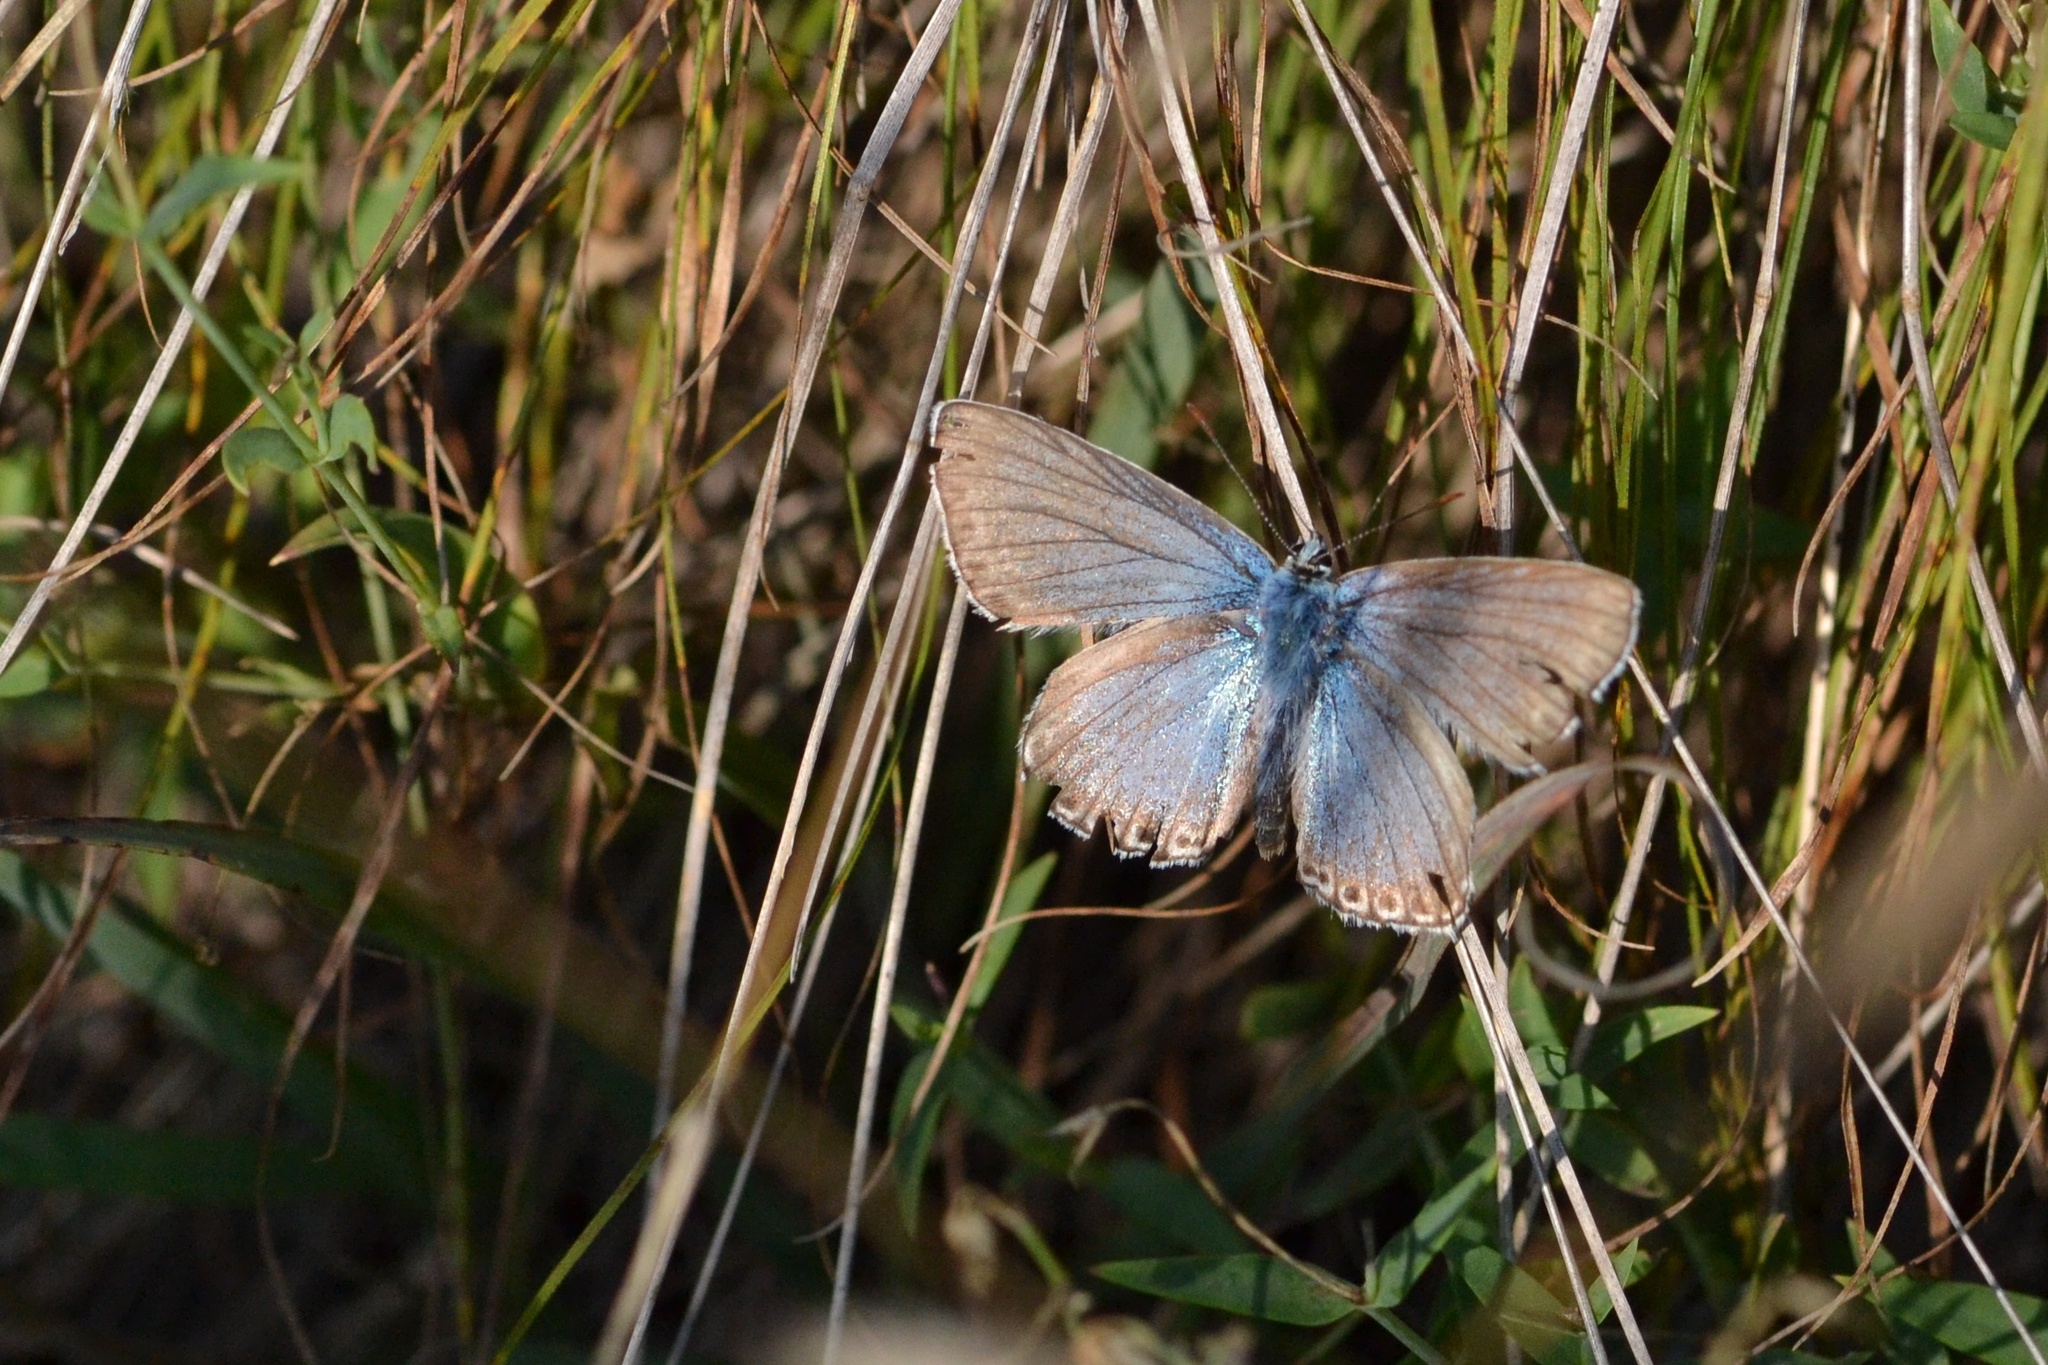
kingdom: Animalia
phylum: Arthropoda
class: Insecta
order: Lepidoptera
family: Lycaenidae
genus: Lysandra
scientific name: Lysandra coridon
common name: Chalkhill blue
